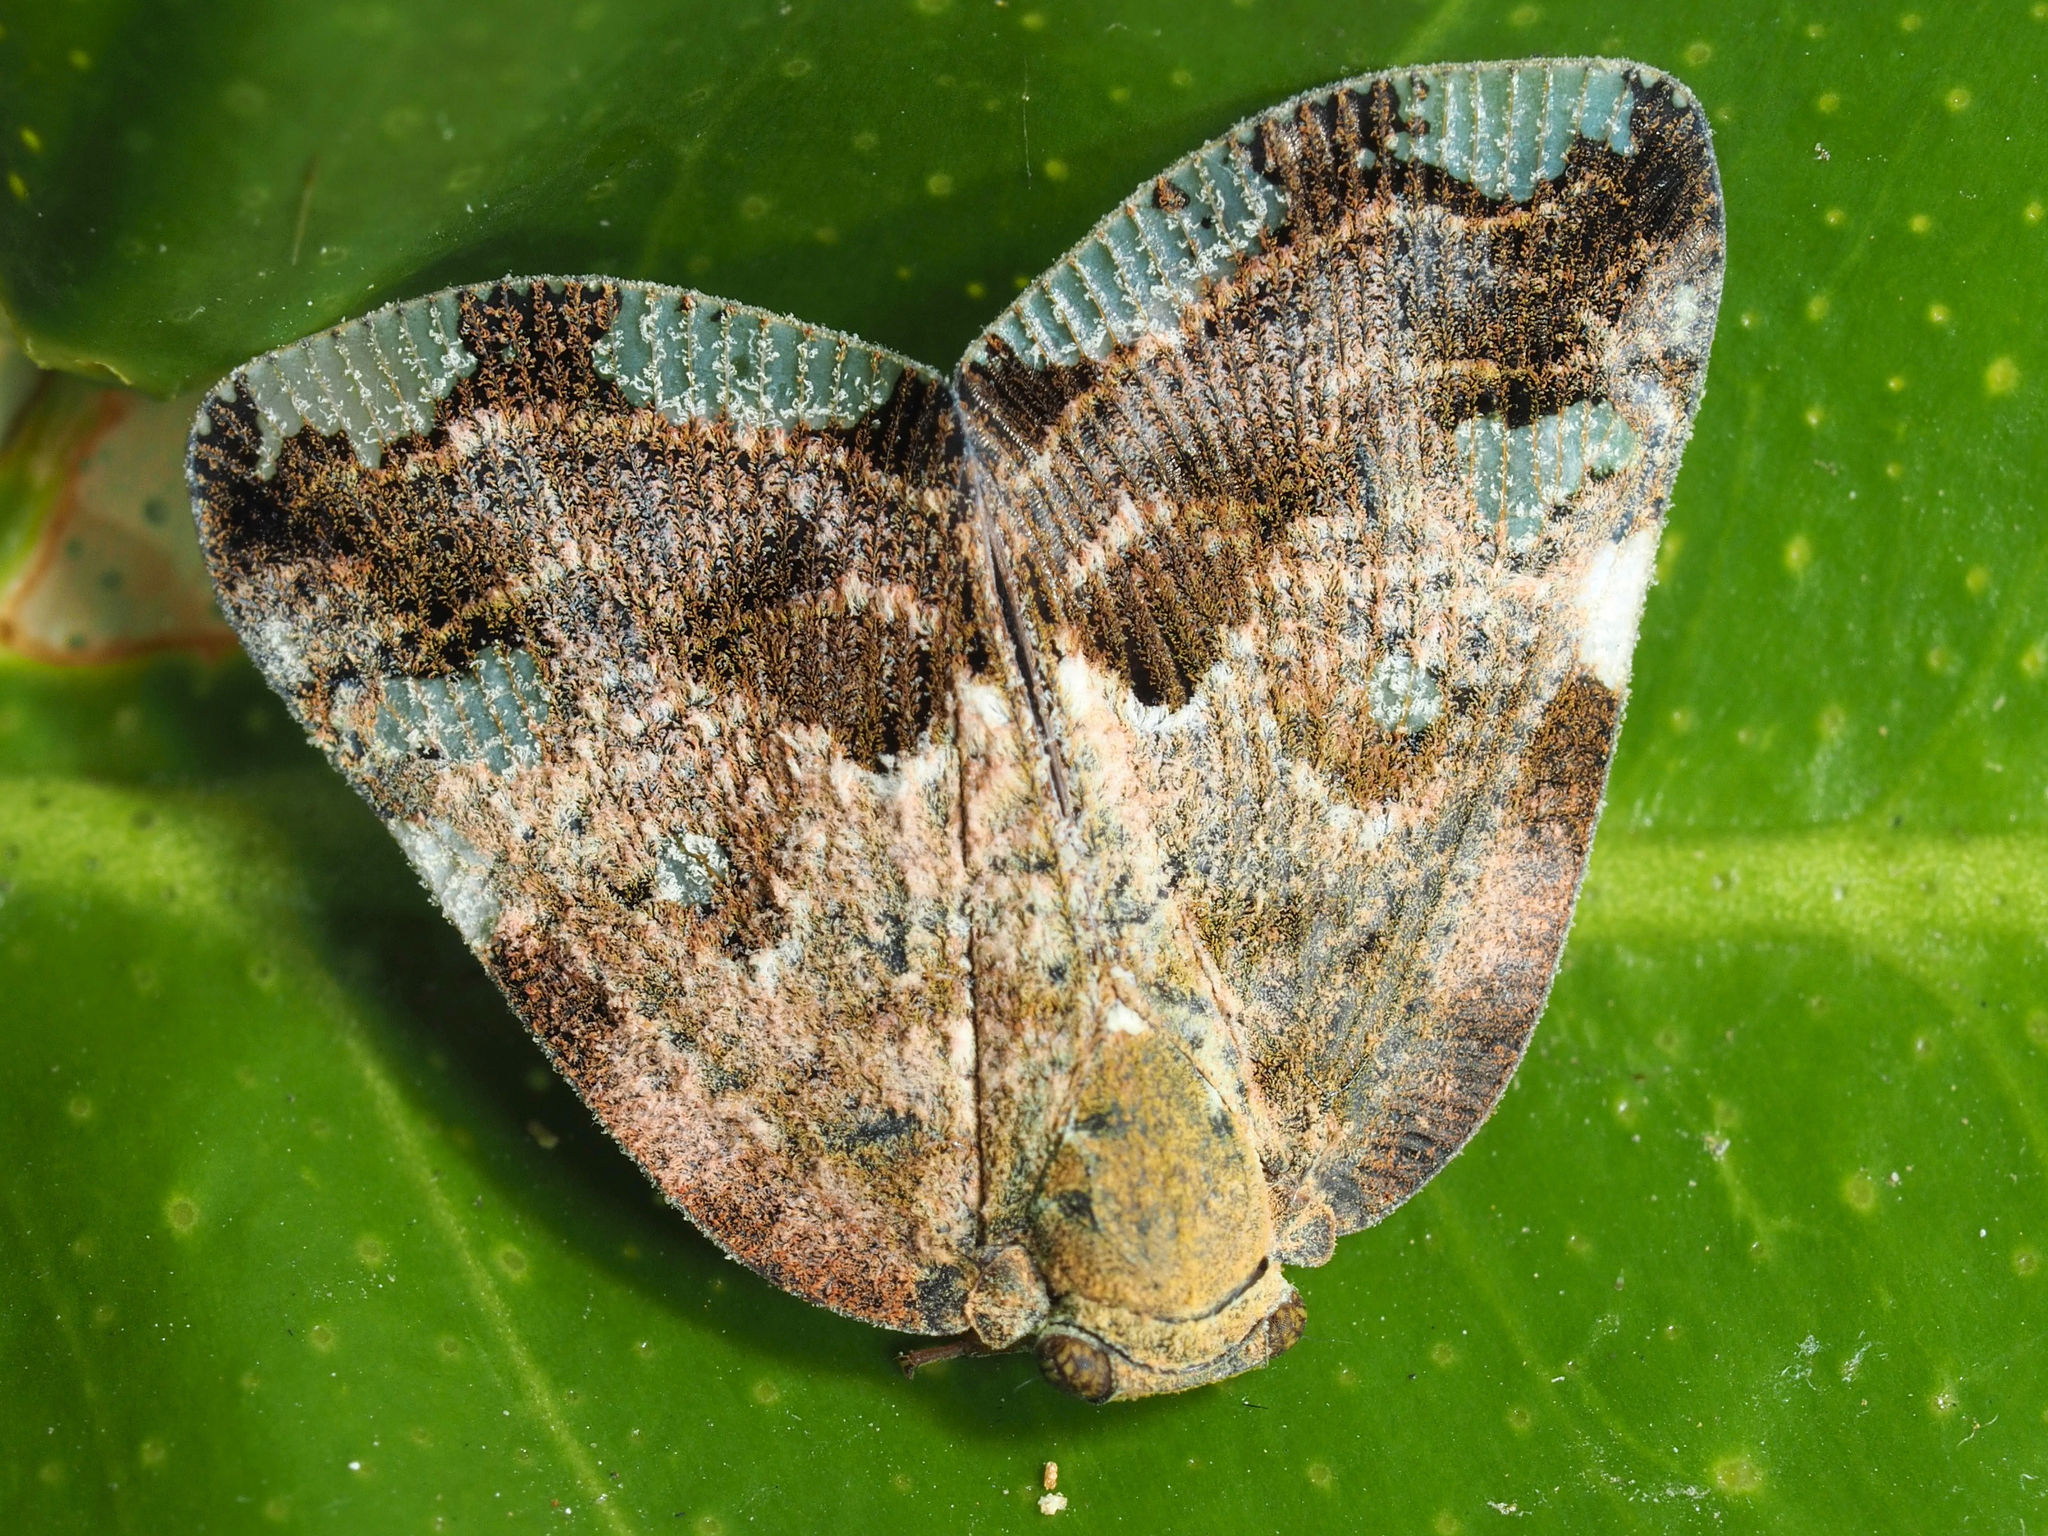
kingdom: Animalia
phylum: Arthropoda
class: Insecta
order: Hemiptera
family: Ricaniidae
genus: Ricania
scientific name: Ricania speculum
